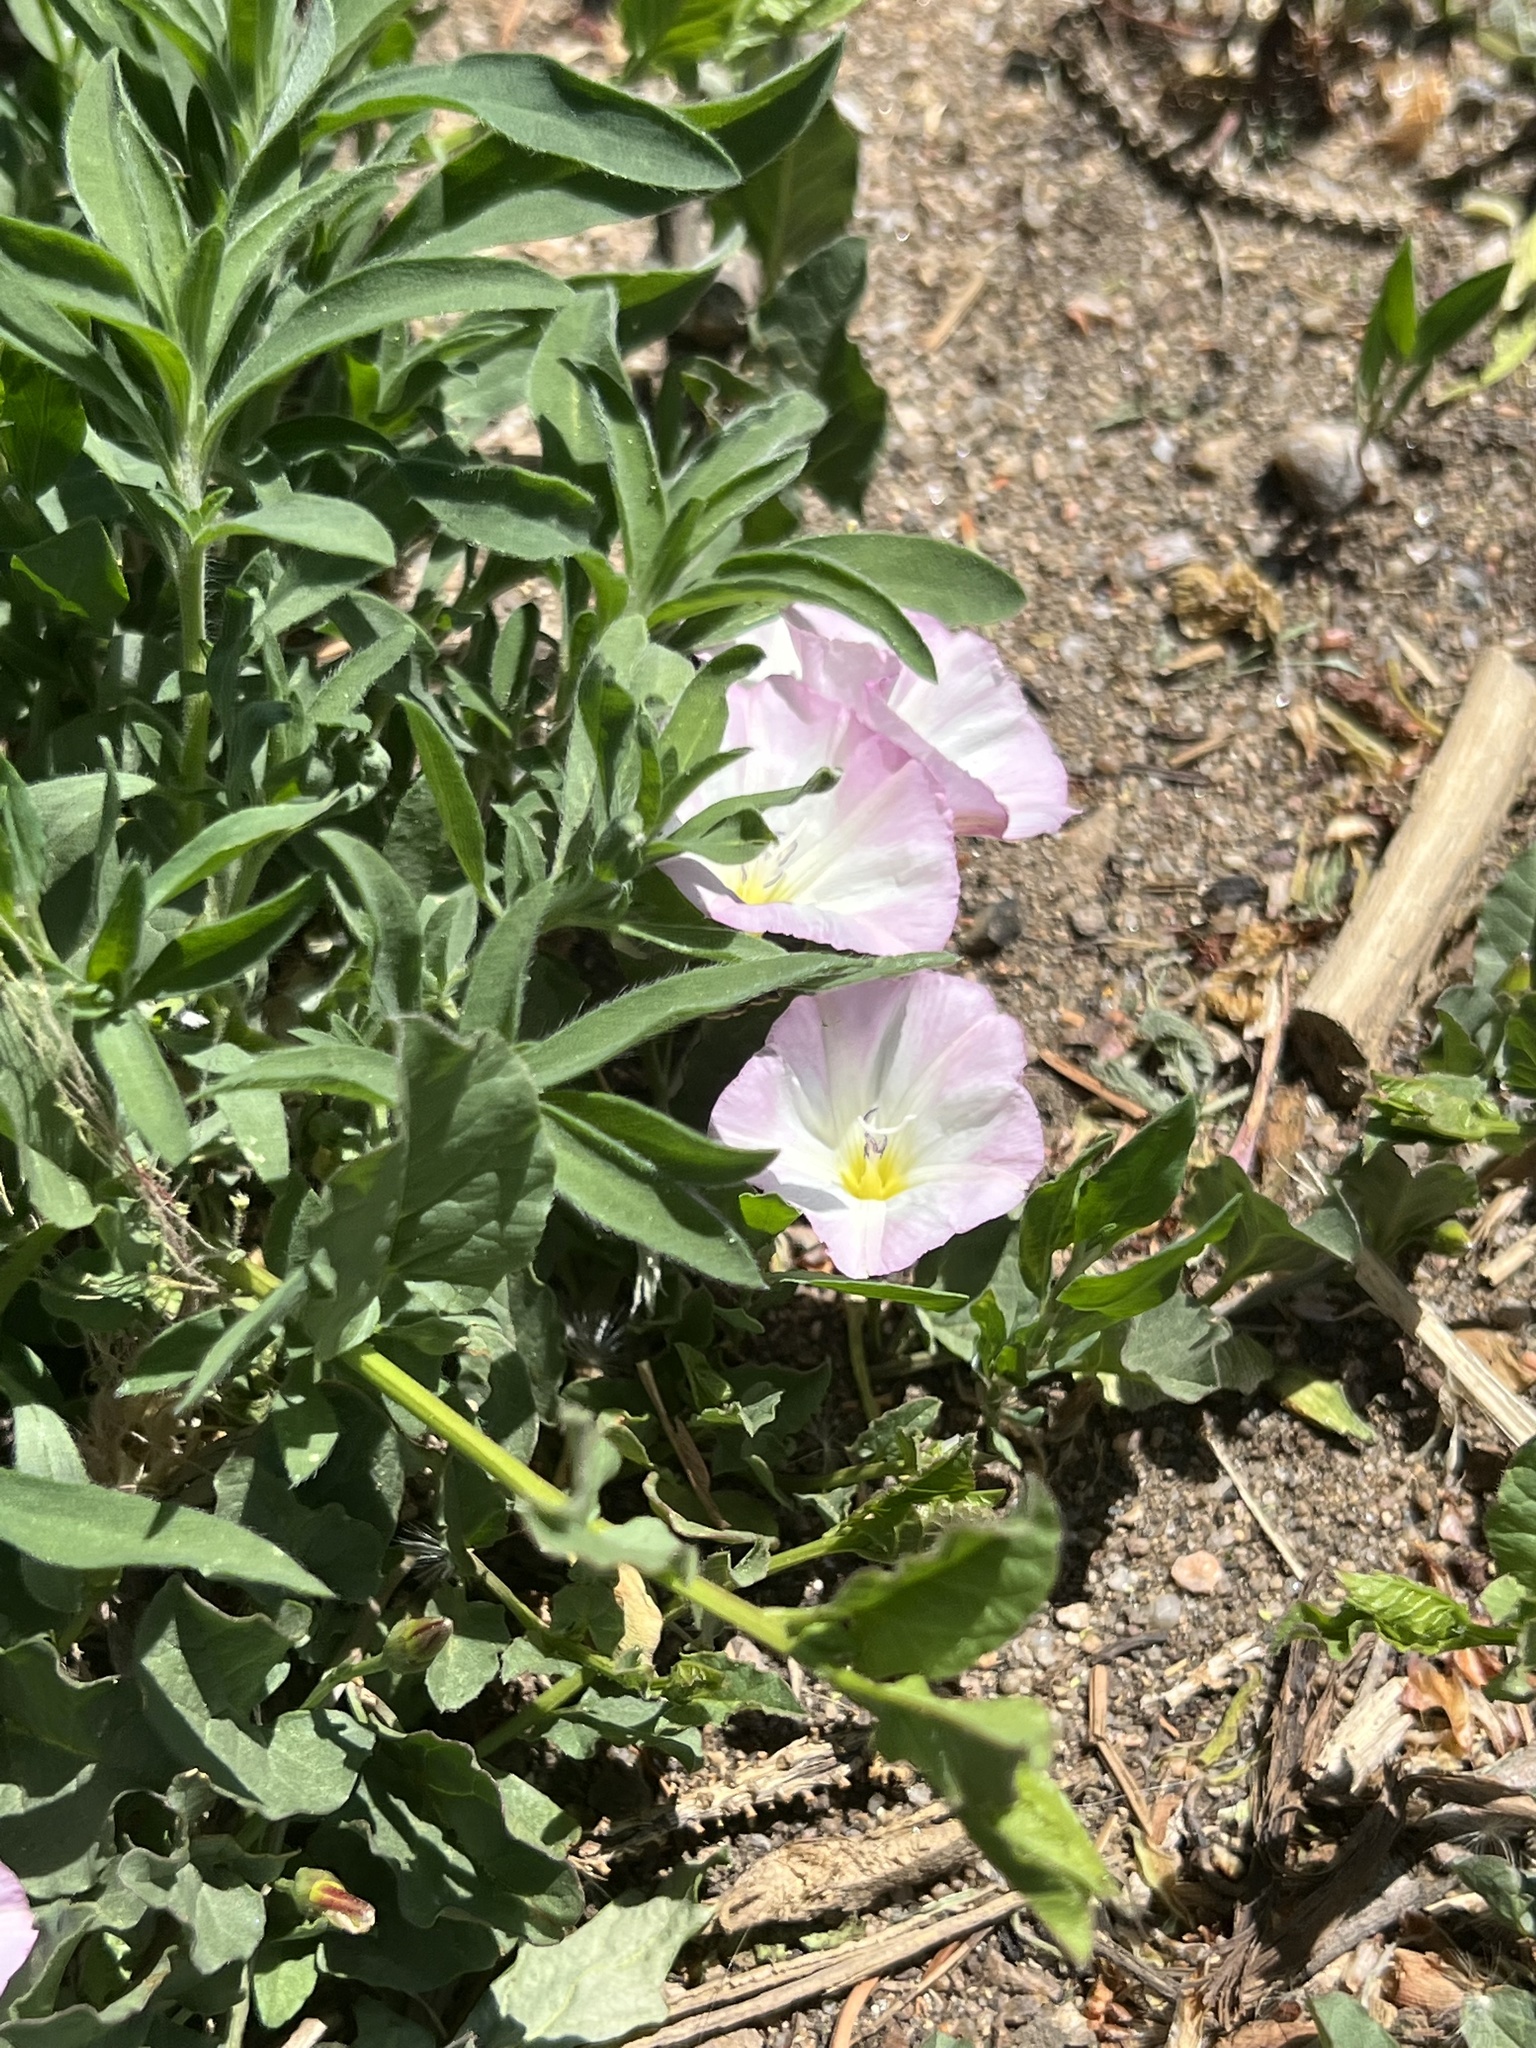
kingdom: Plantae
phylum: Tracheophyta
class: Magnoliopsida
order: Solanales
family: Convolvulaceae
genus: Convolvulus
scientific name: Convolvulus arvensis
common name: Field bindweed
